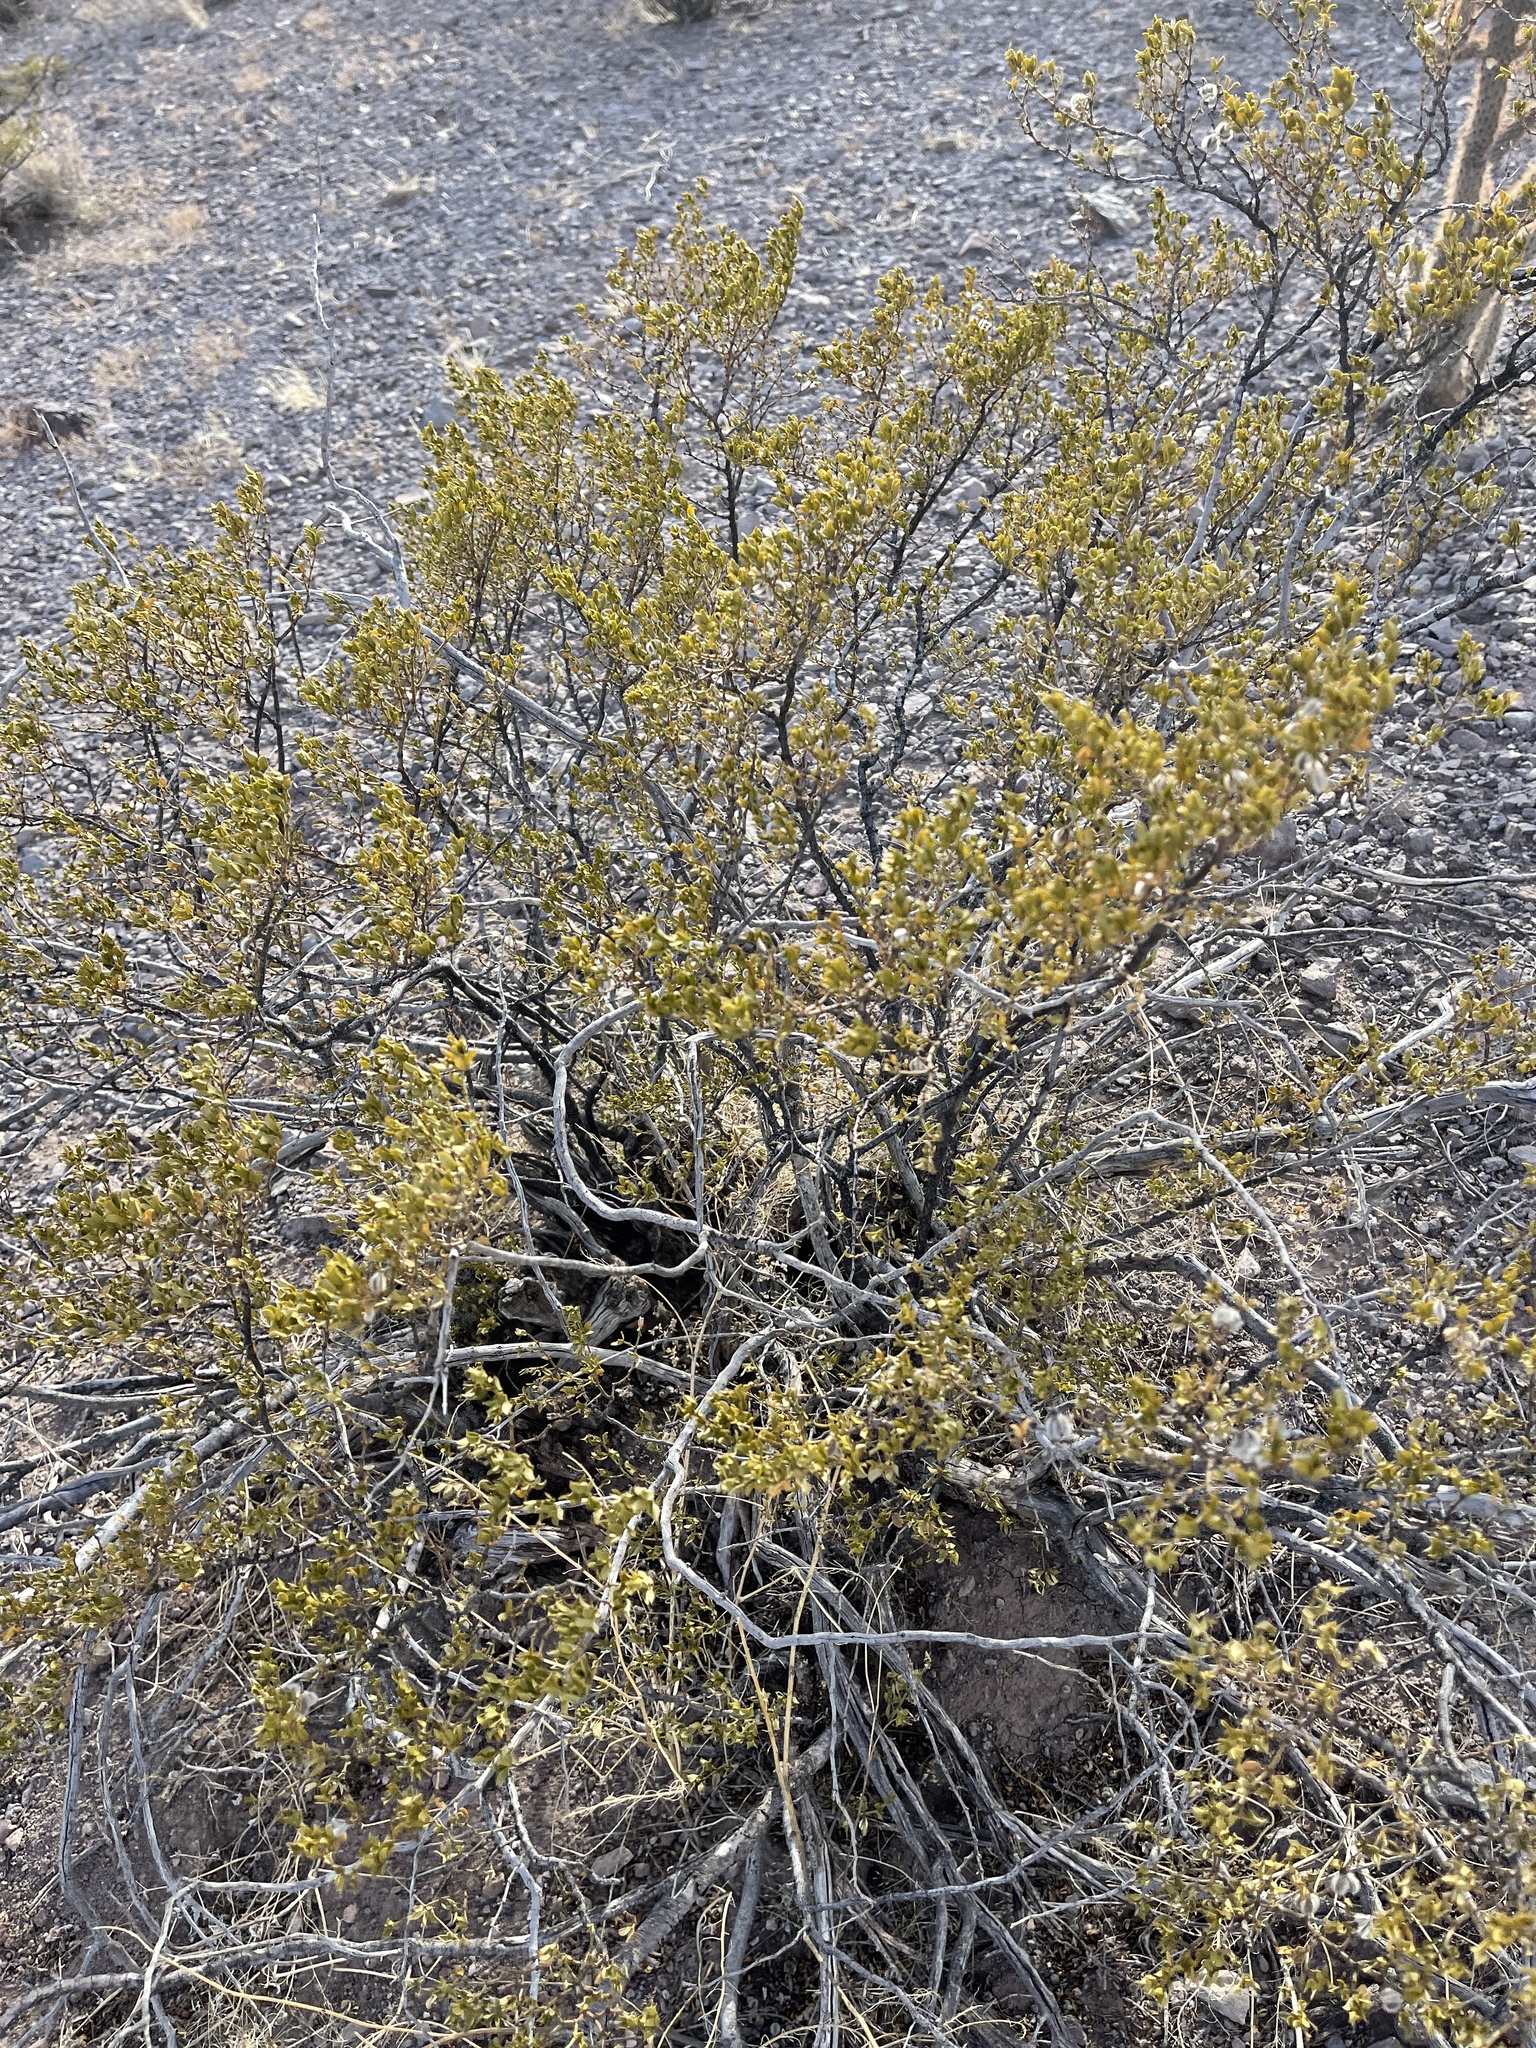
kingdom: Plantae
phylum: Tracheophyta
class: Magnoliopsida
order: Zygophyllales
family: Zygophyllaceae
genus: Larrea
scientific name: Larrea tridentata
